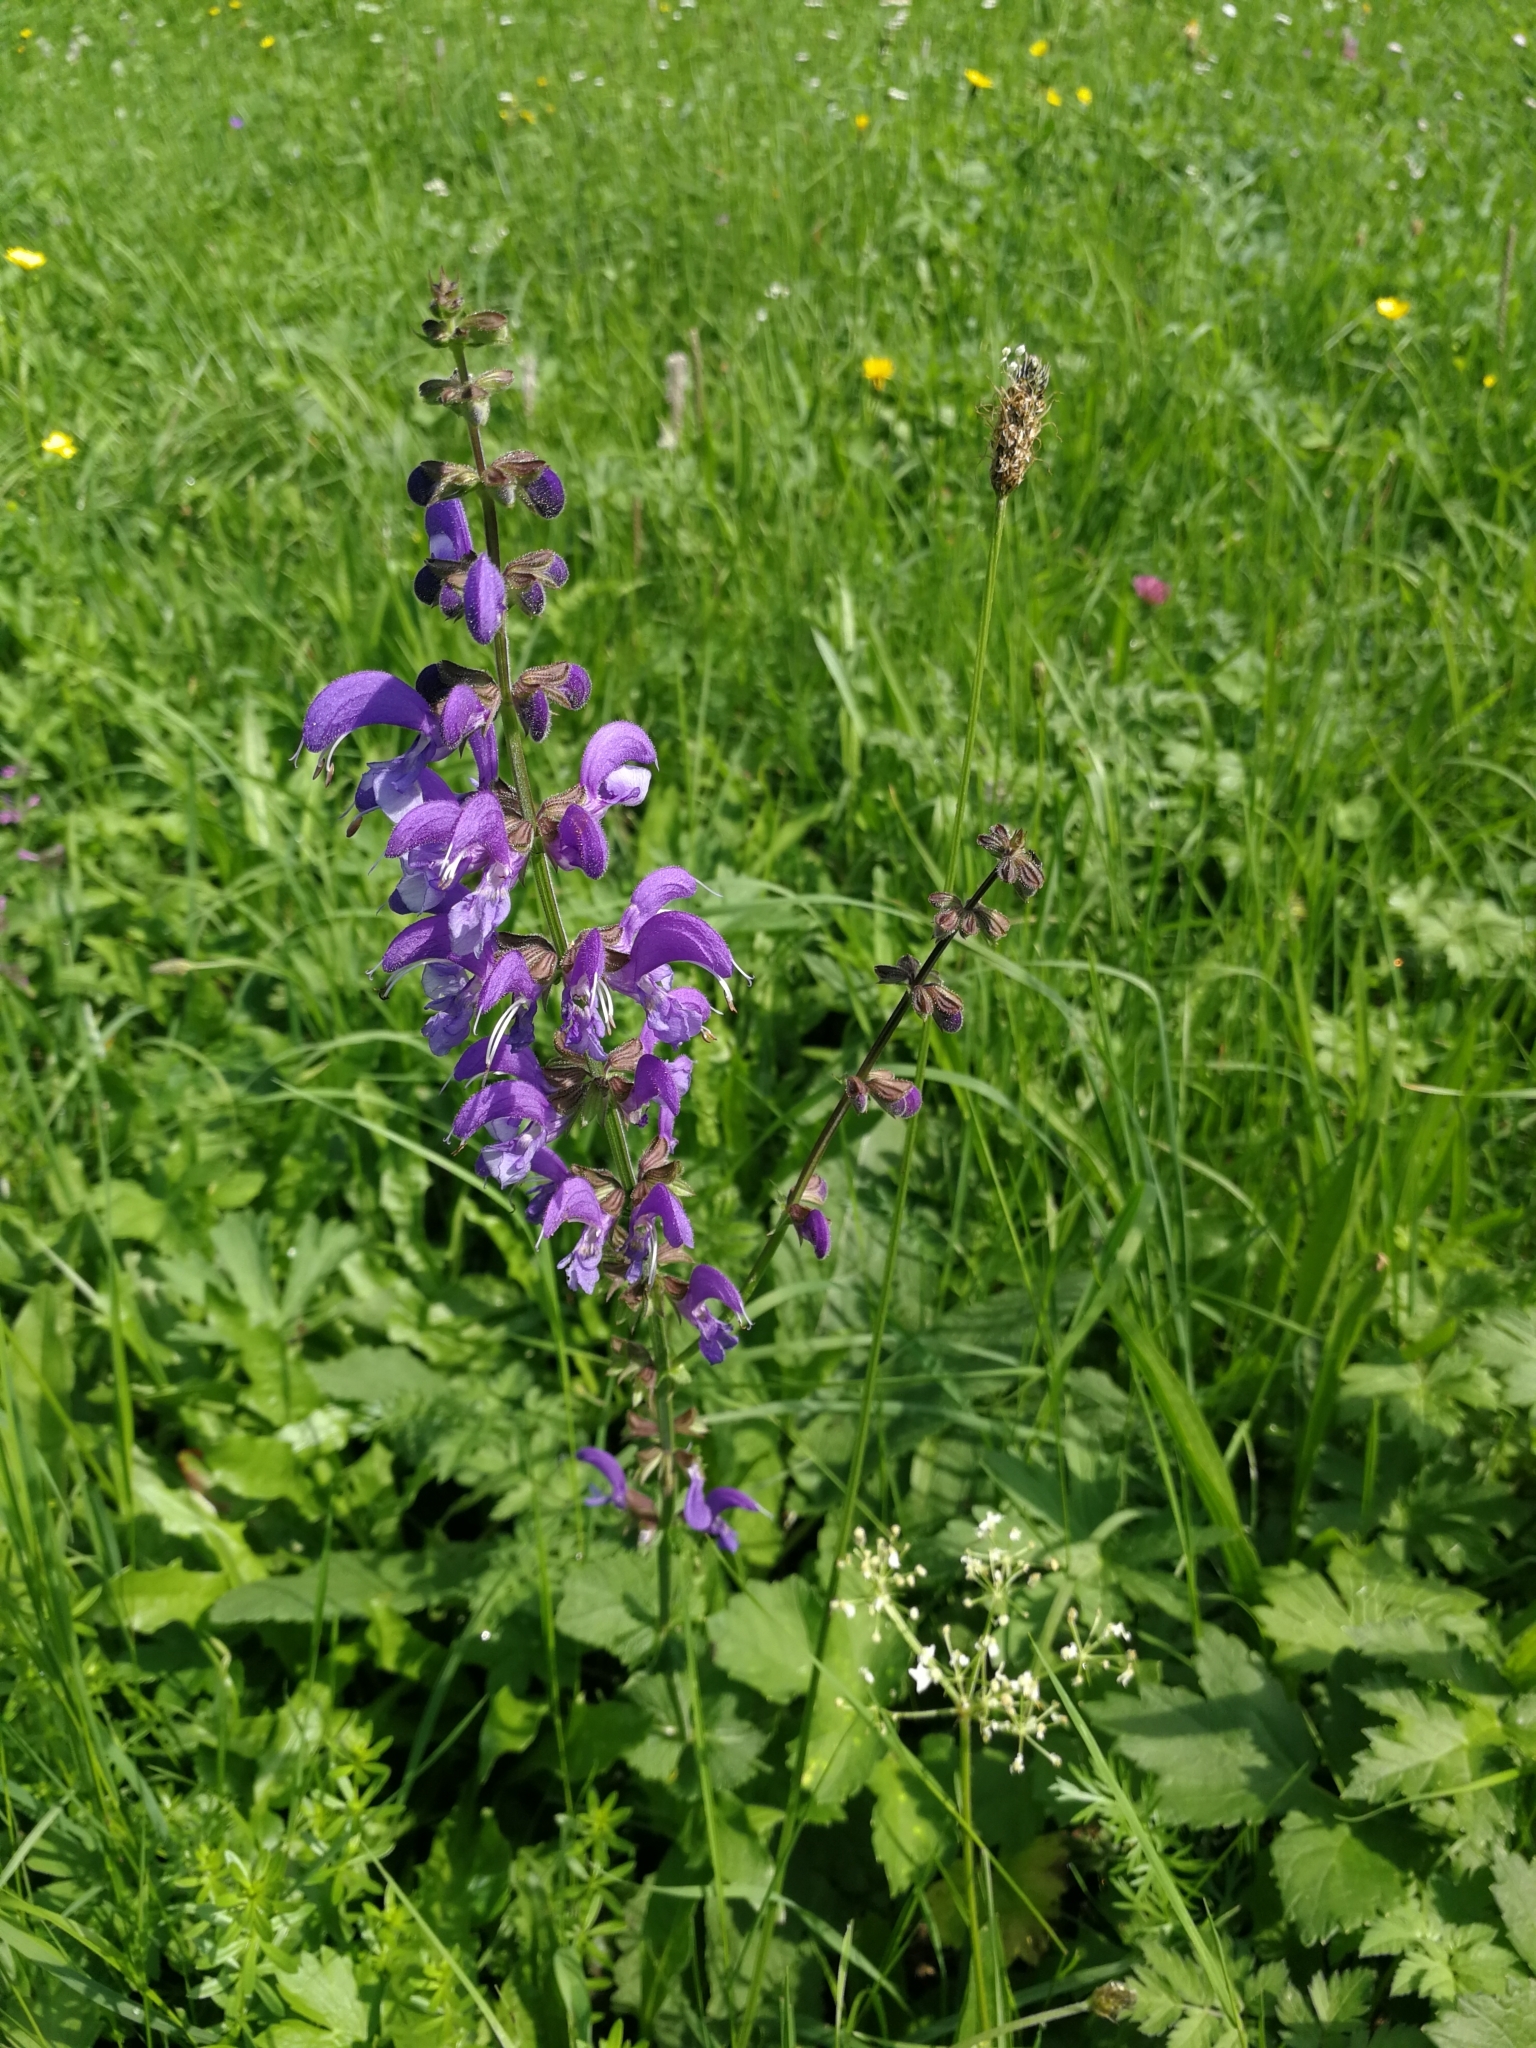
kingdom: Plantae
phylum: Tracheophyta
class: Magnoliopsida
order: Lamiales
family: Lamiaceae
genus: Salvia
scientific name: Salvia pratensis
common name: Meadow sage
